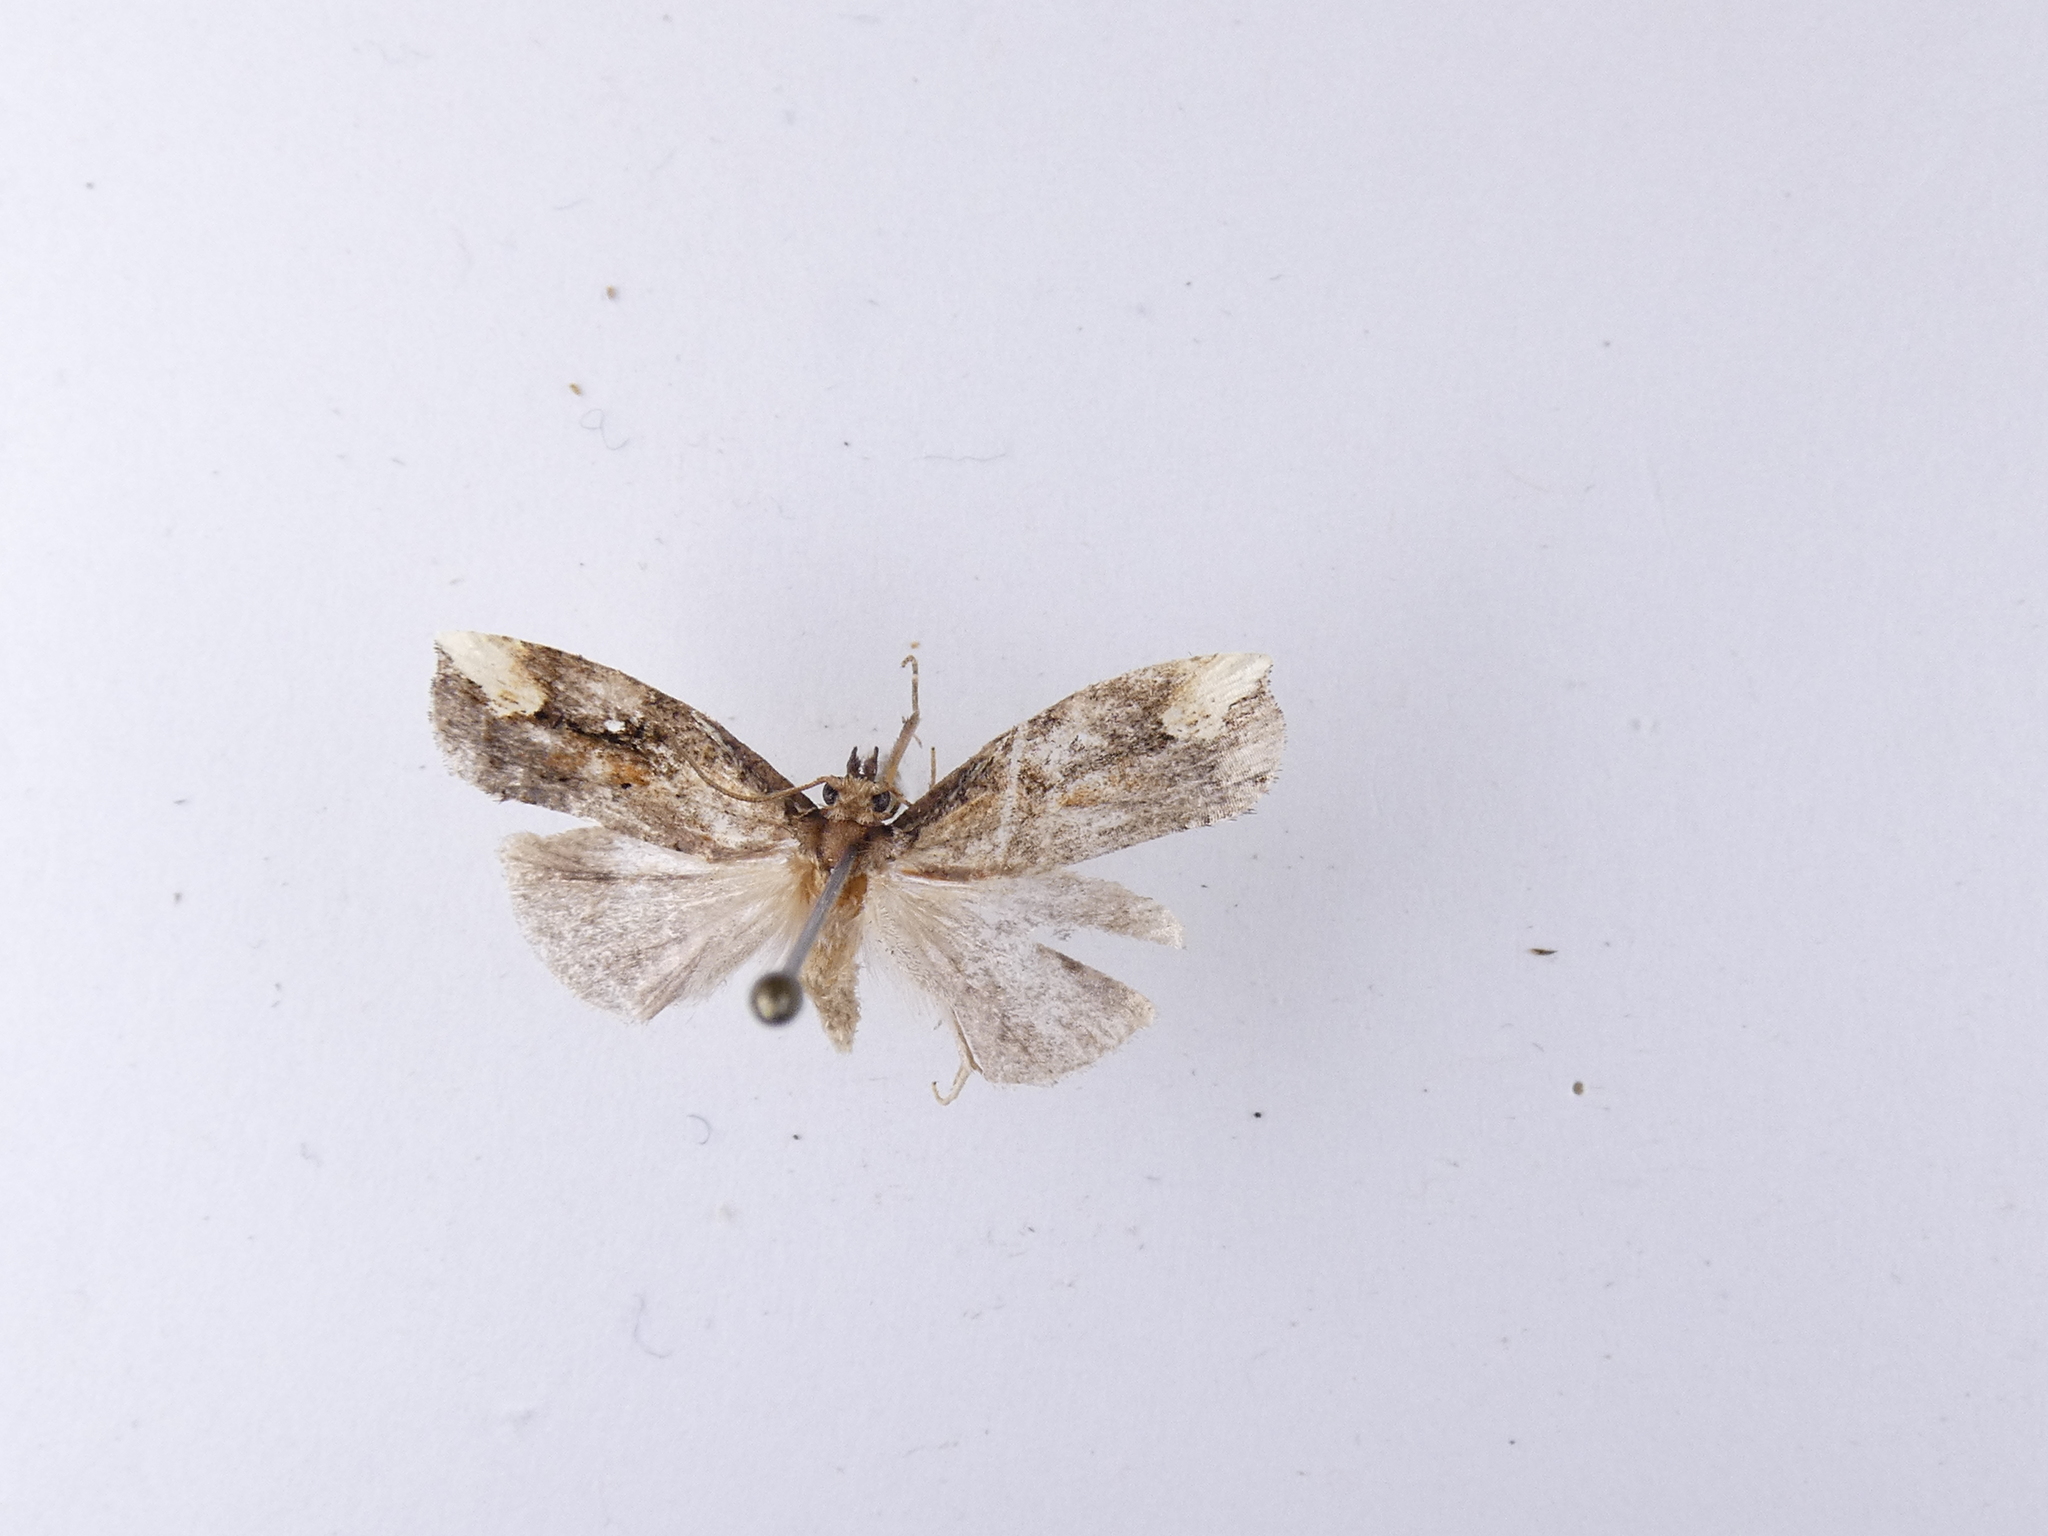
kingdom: Animalia
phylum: Arthropoda
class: Insecta
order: Lepidoptera
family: Tortricidae
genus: Epalxiphora
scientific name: Epalxiphora axenana
